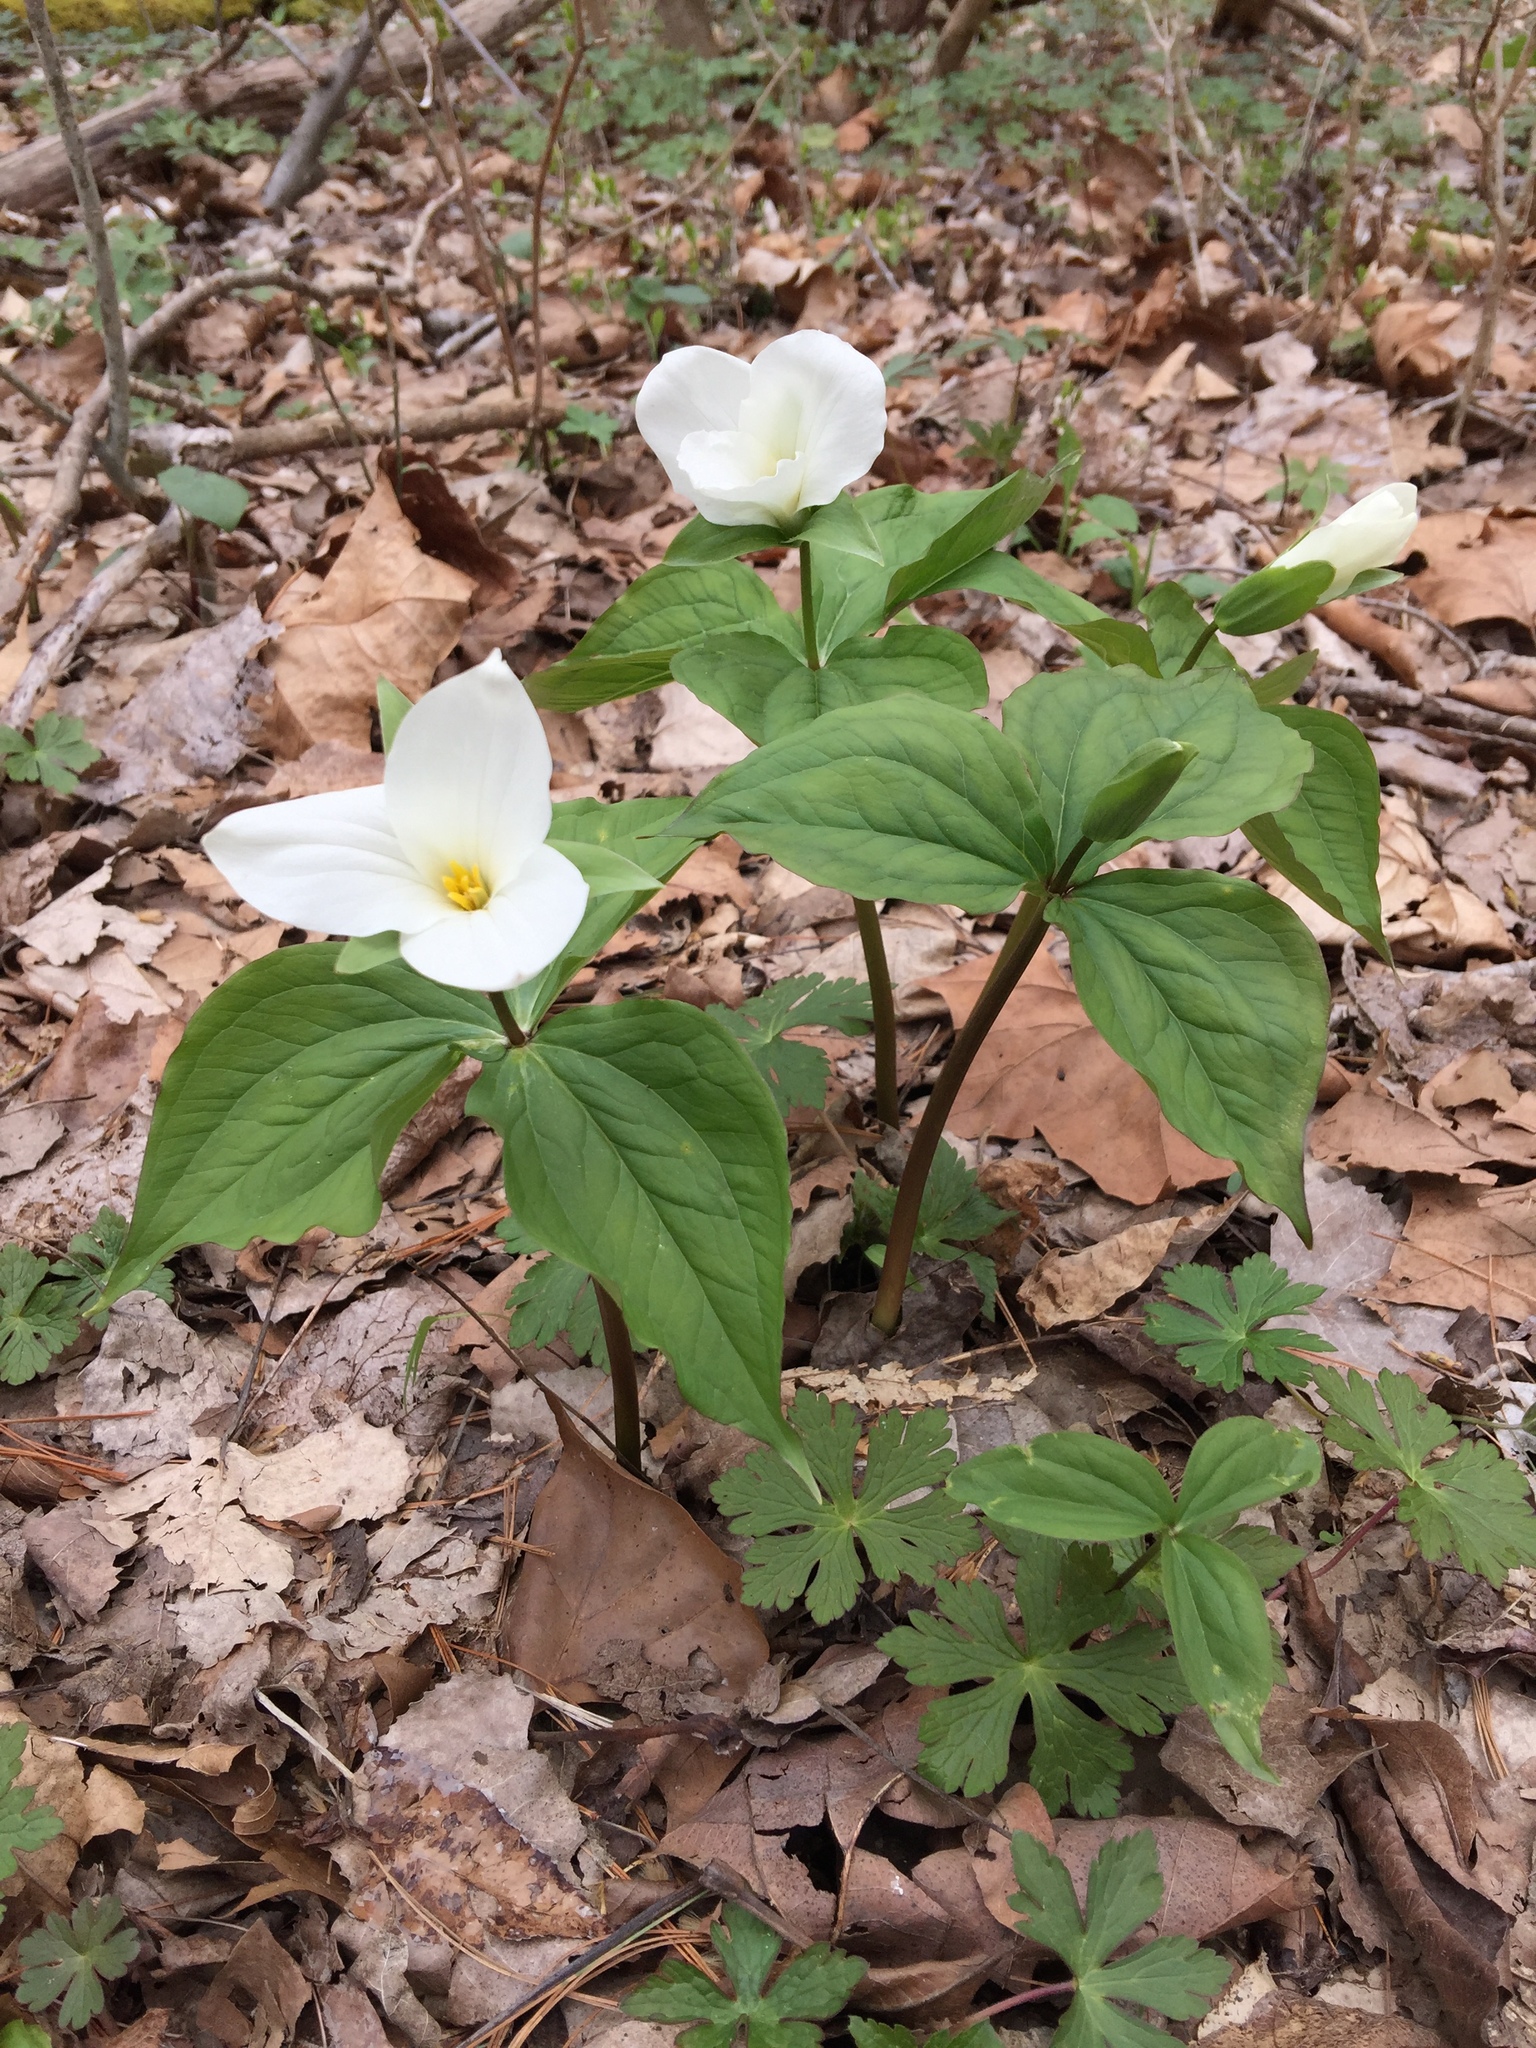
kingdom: Plantae
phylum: Tracheophyta
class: Liliopsida
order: Liliales
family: Melanthiaceae
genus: Trillium
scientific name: Trillium grandiflorum
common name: Great white trillium
